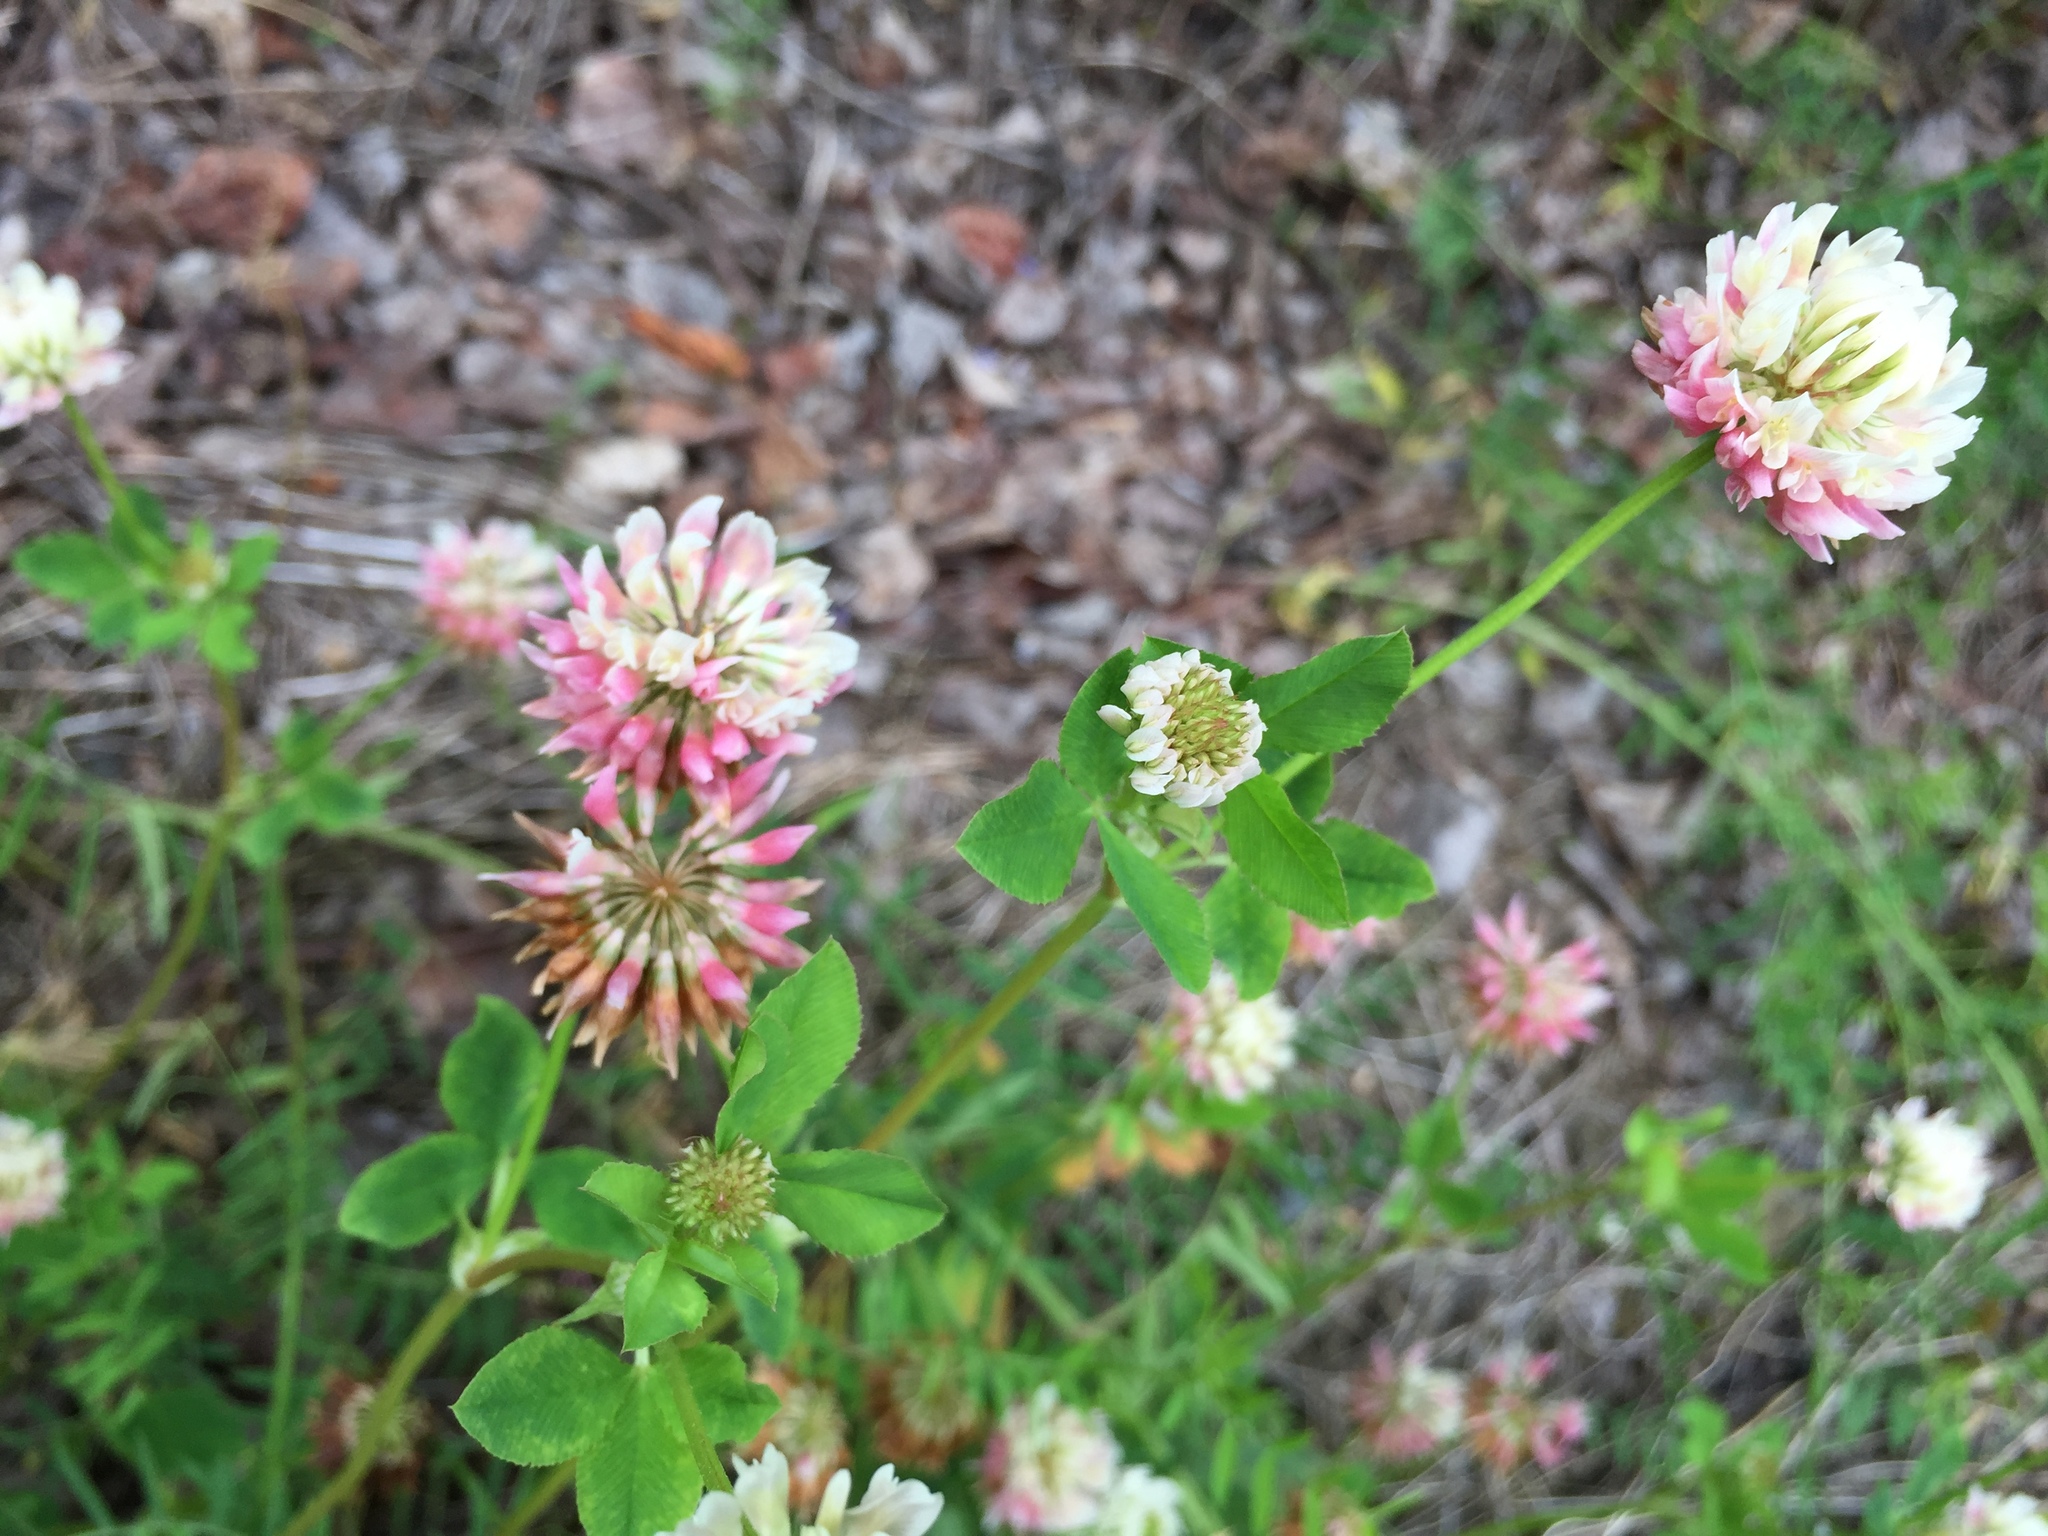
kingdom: Plantae
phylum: Tracheophyta
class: Magnoliopsida
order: Fabales
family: Fabaceae
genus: Trifolium
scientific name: Trifolium hybridum
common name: Alsike clover
